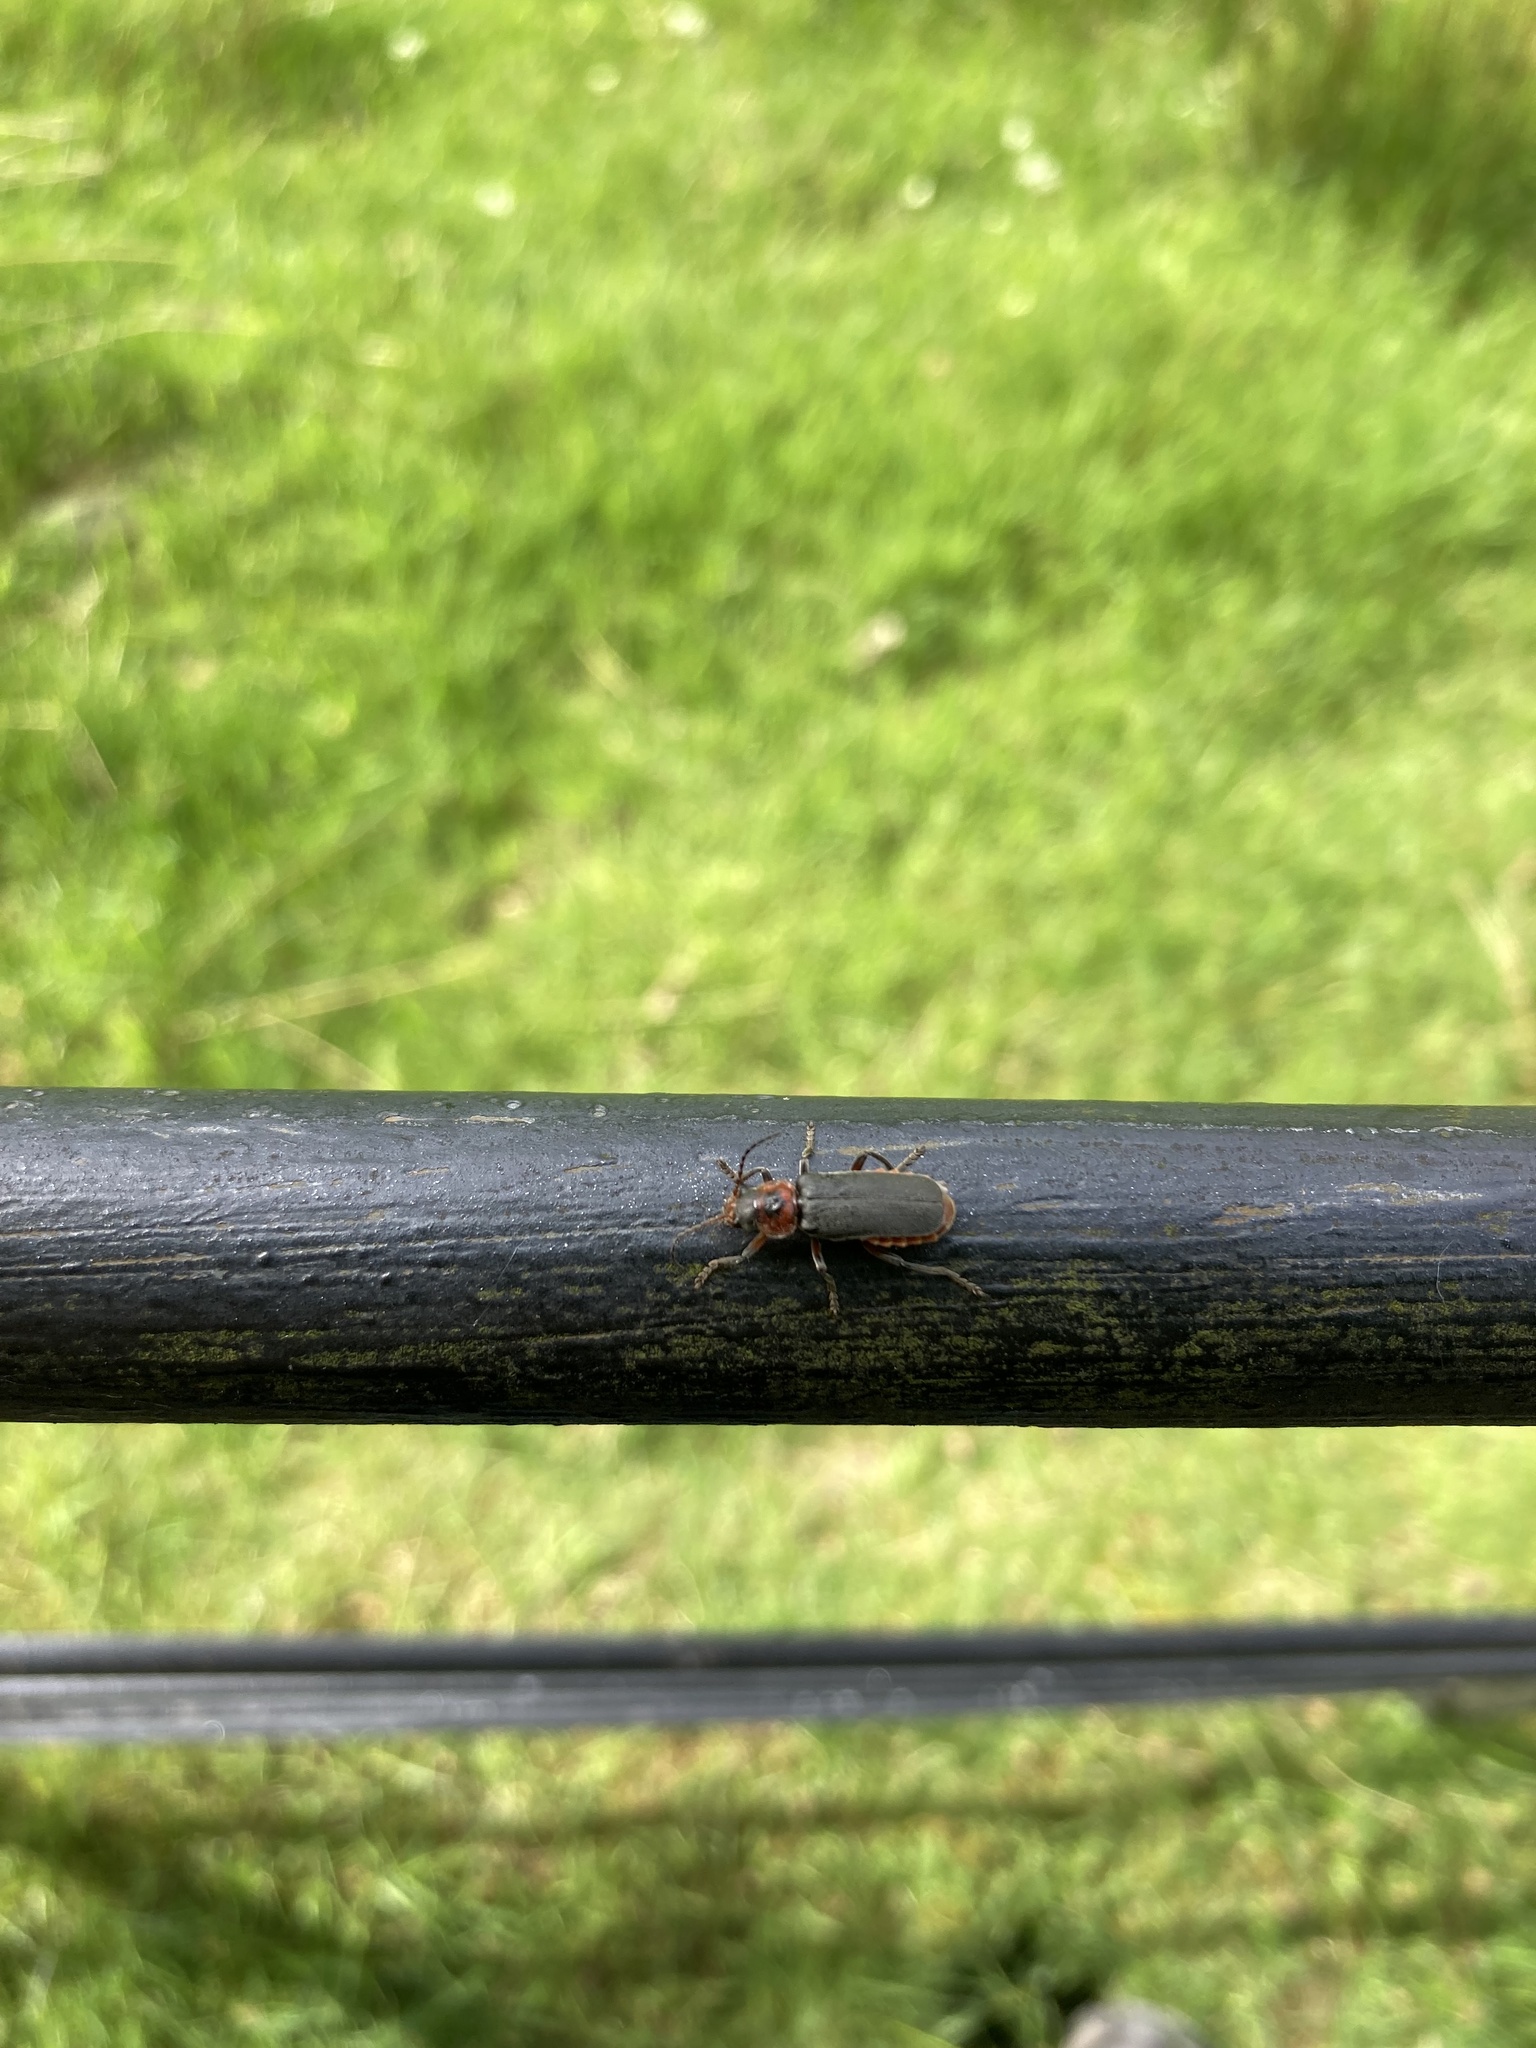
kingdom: Animalia
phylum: Arthropoda
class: Insecta
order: Coleoptera
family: Cantharidae
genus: Cantharis
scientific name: Cantharis rustica
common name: Soldier beetle
